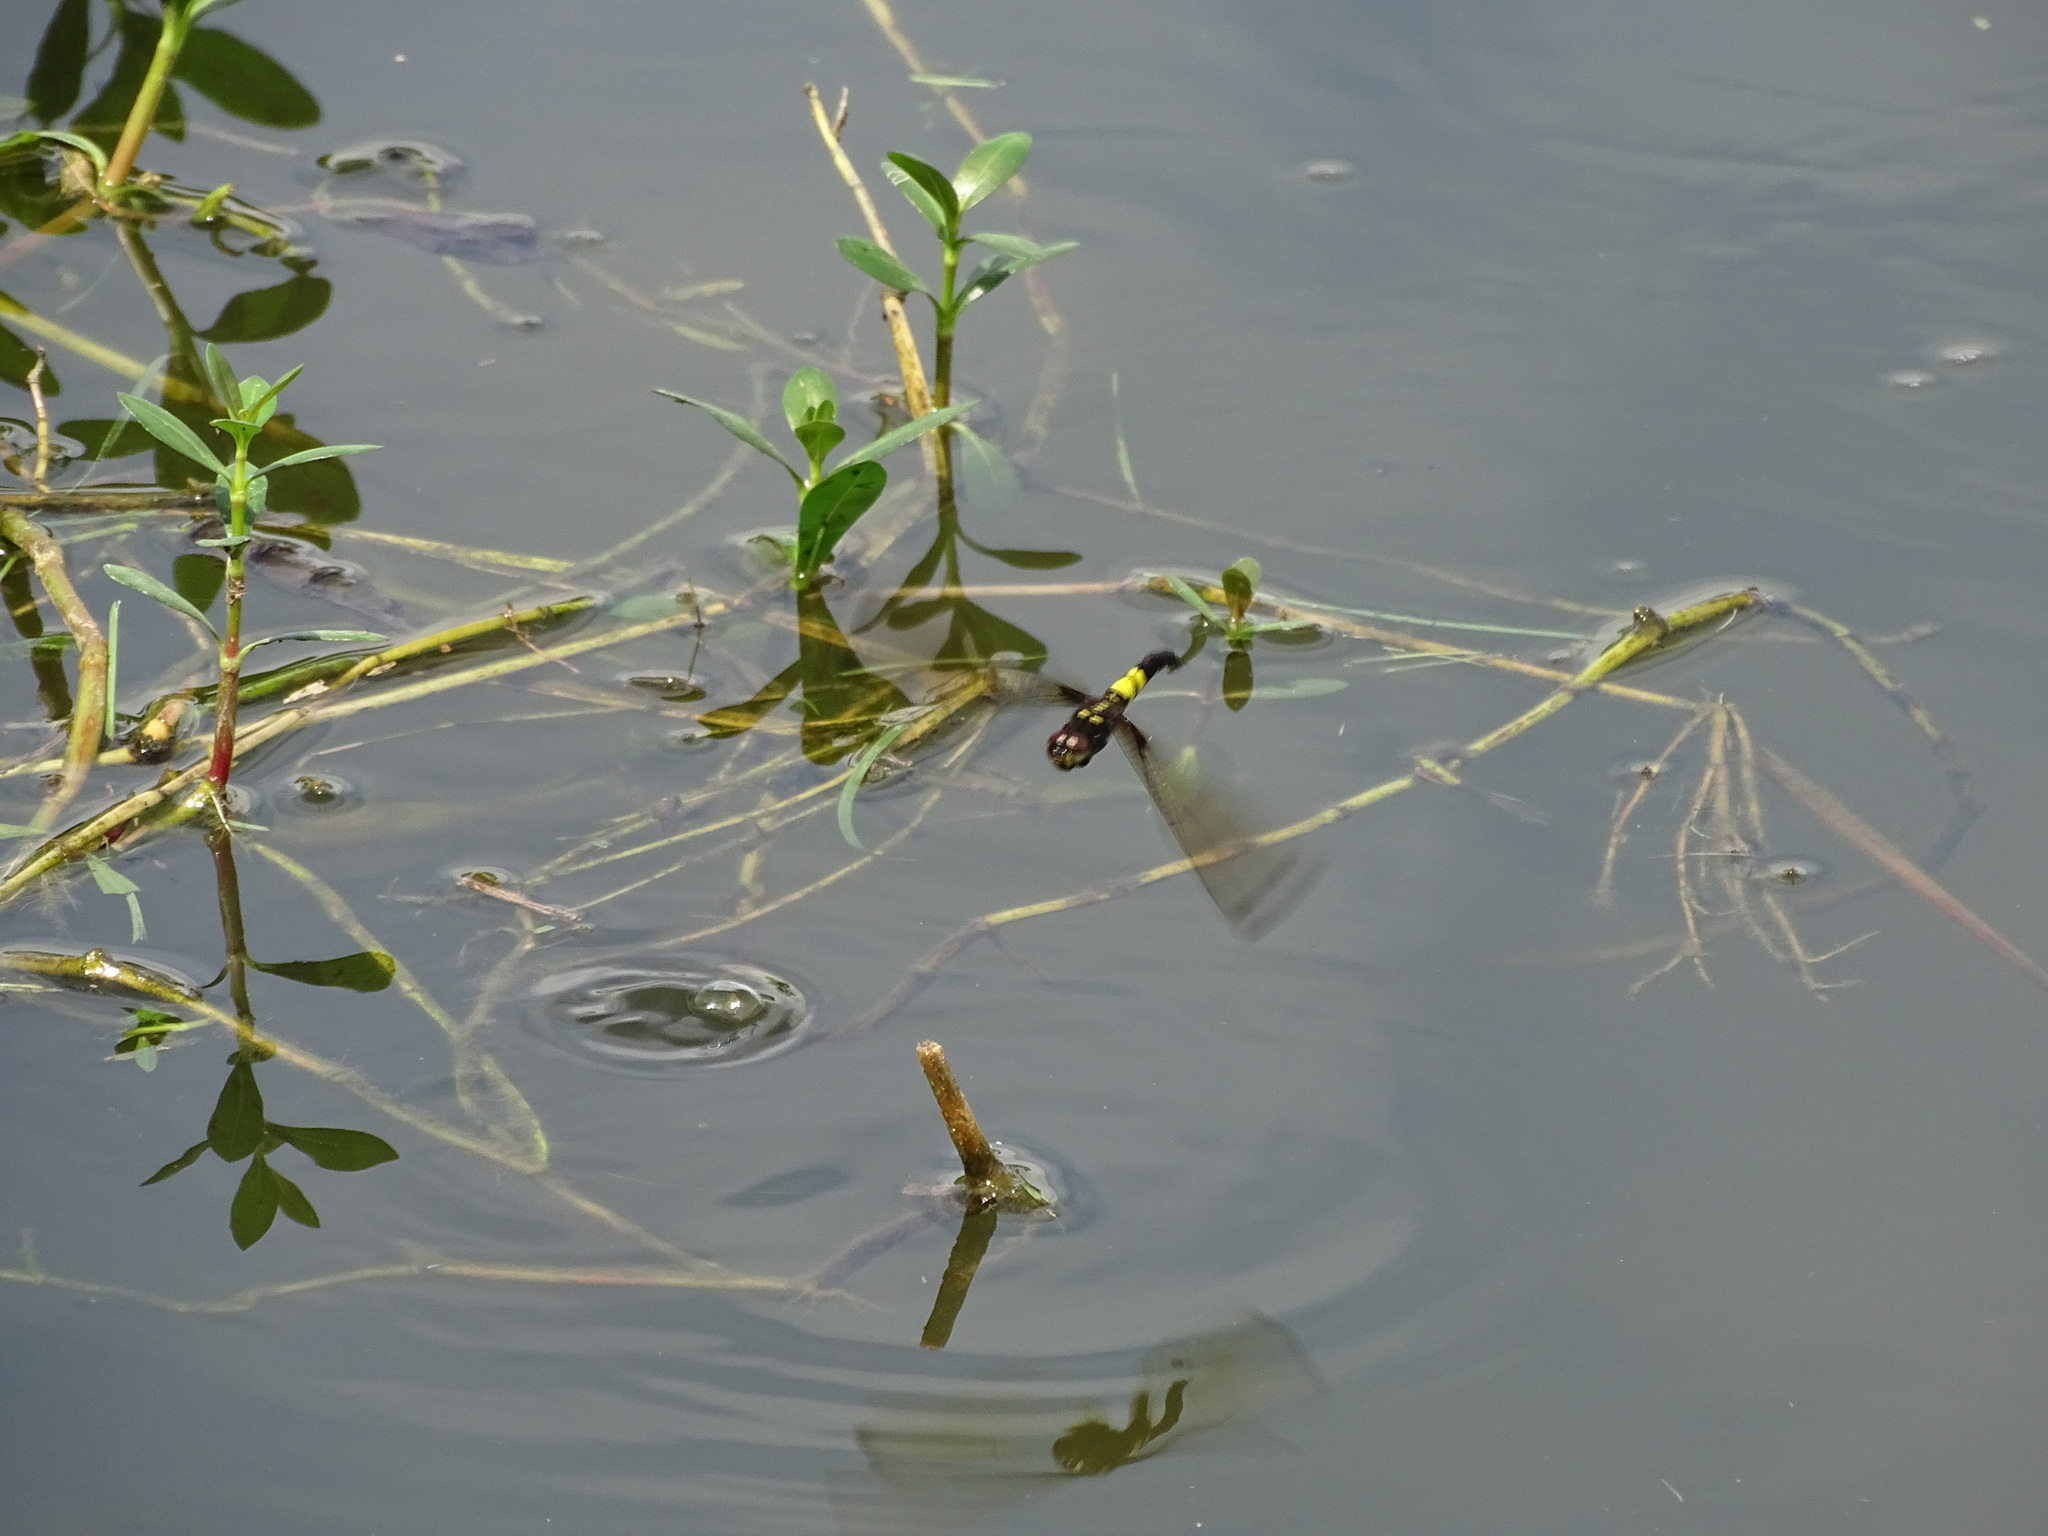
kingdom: Animalia
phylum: Arthropoda
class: Insecta
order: Odonata
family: Libellulidae
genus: Pseudothemis
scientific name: Pseudothemis zonata
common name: Pied skimmer
